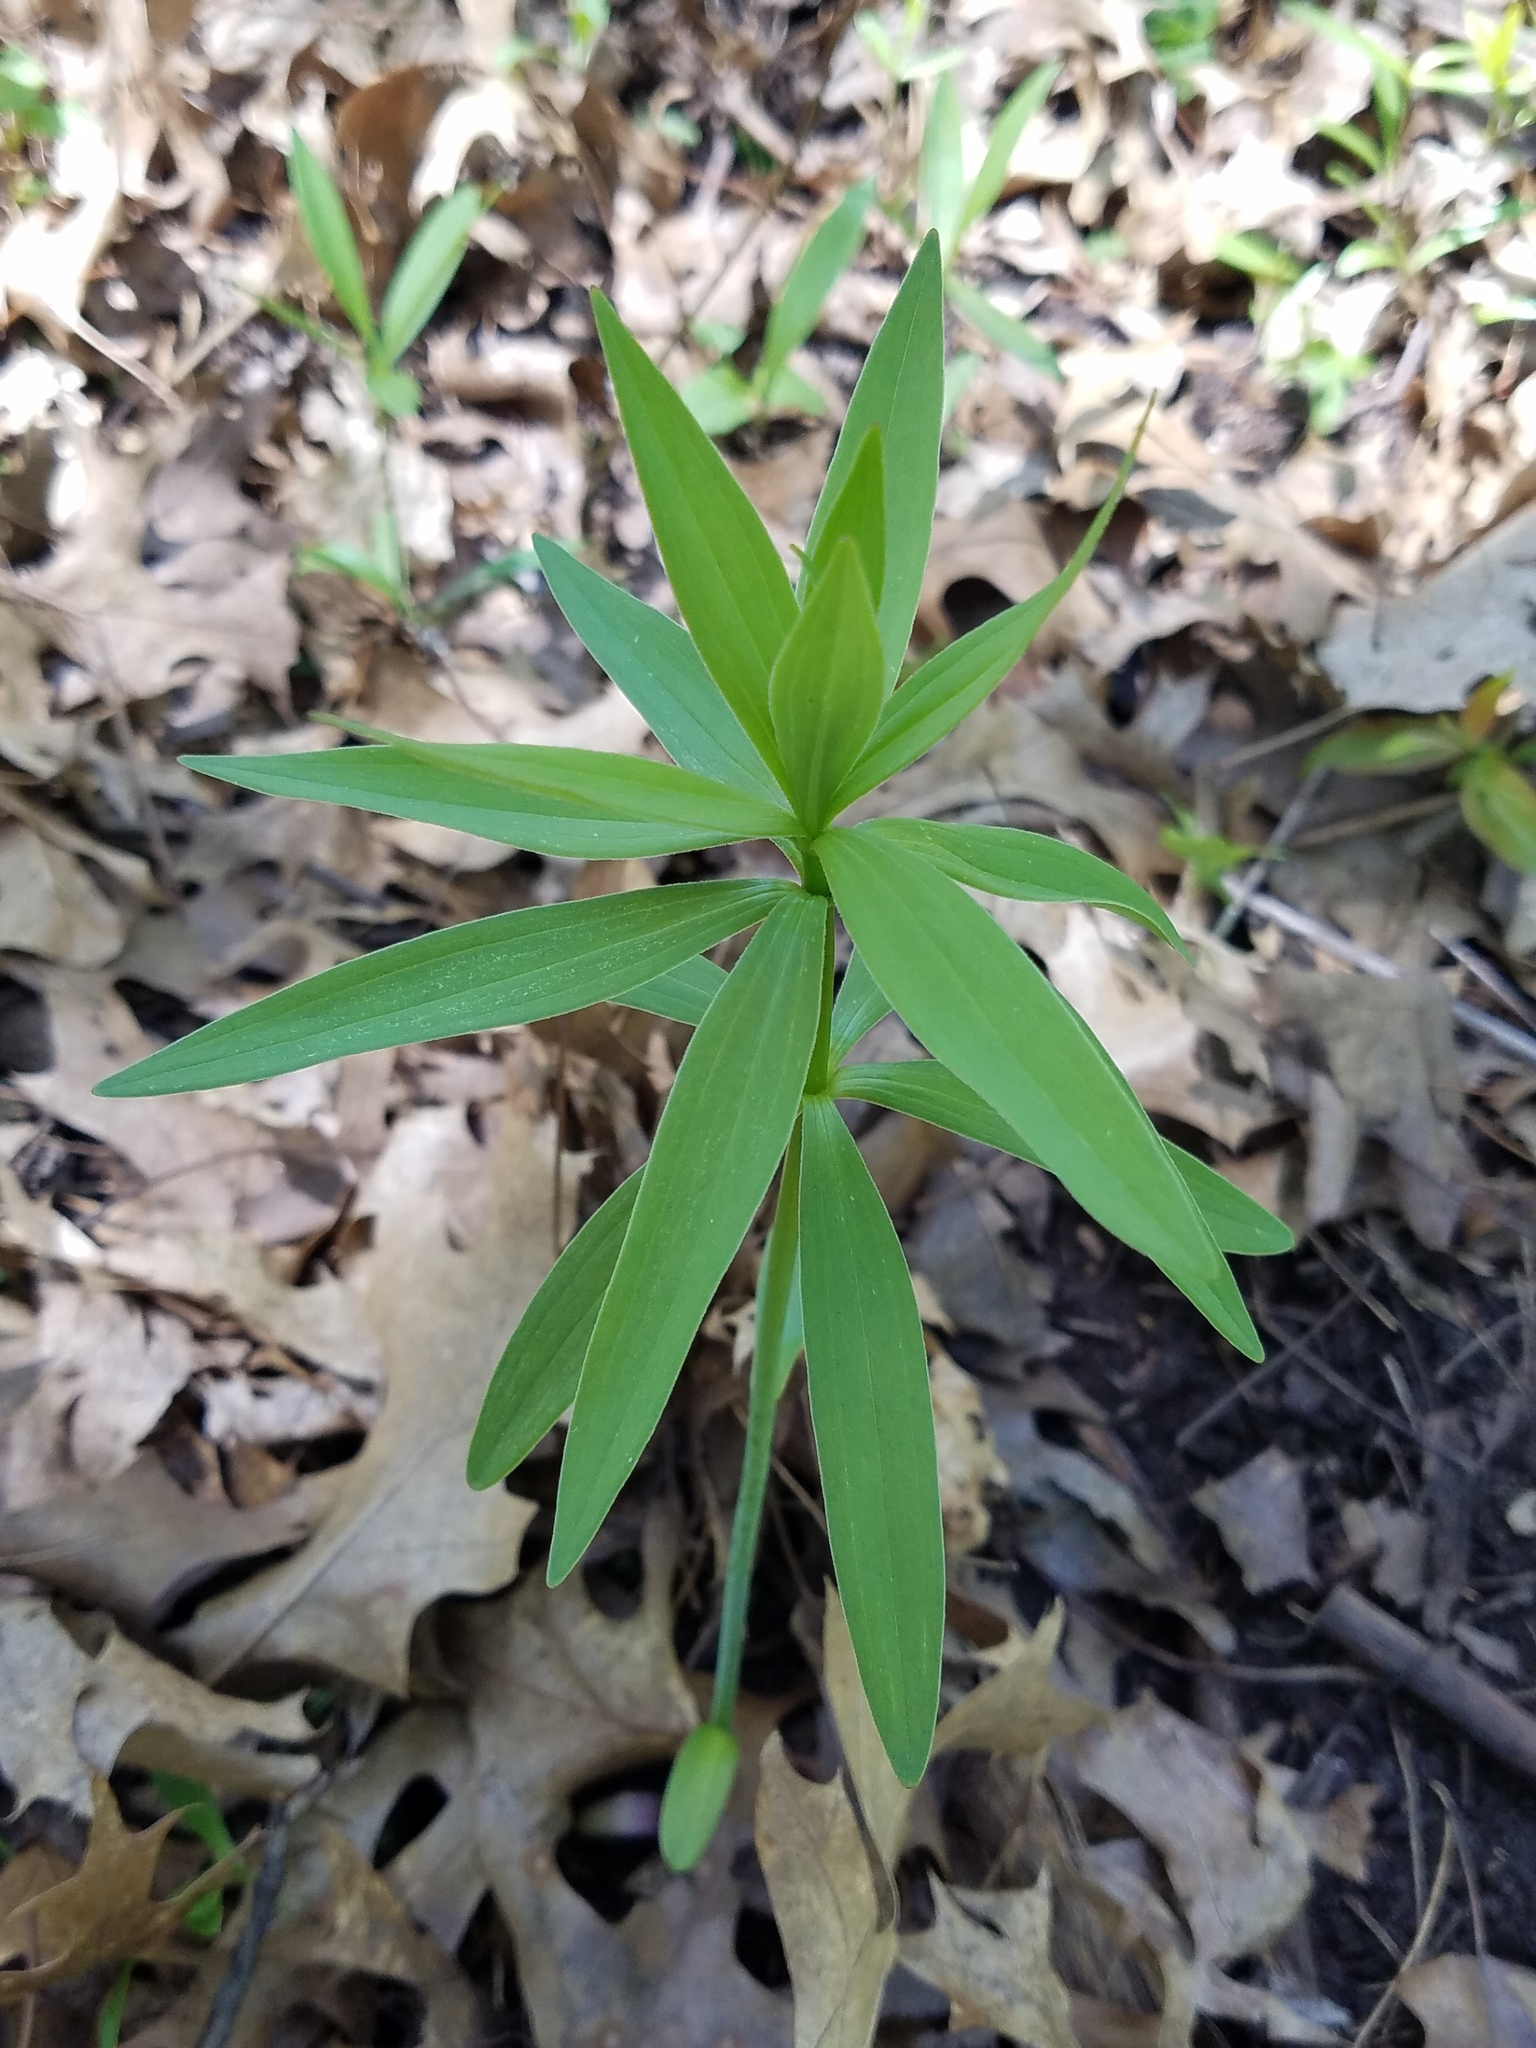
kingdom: Plantae
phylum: Tracheophyta
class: Liliopsida
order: Liliales
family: Liliaceae
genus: Lilium
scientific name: Lilium michiganense
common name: Michigan lily
